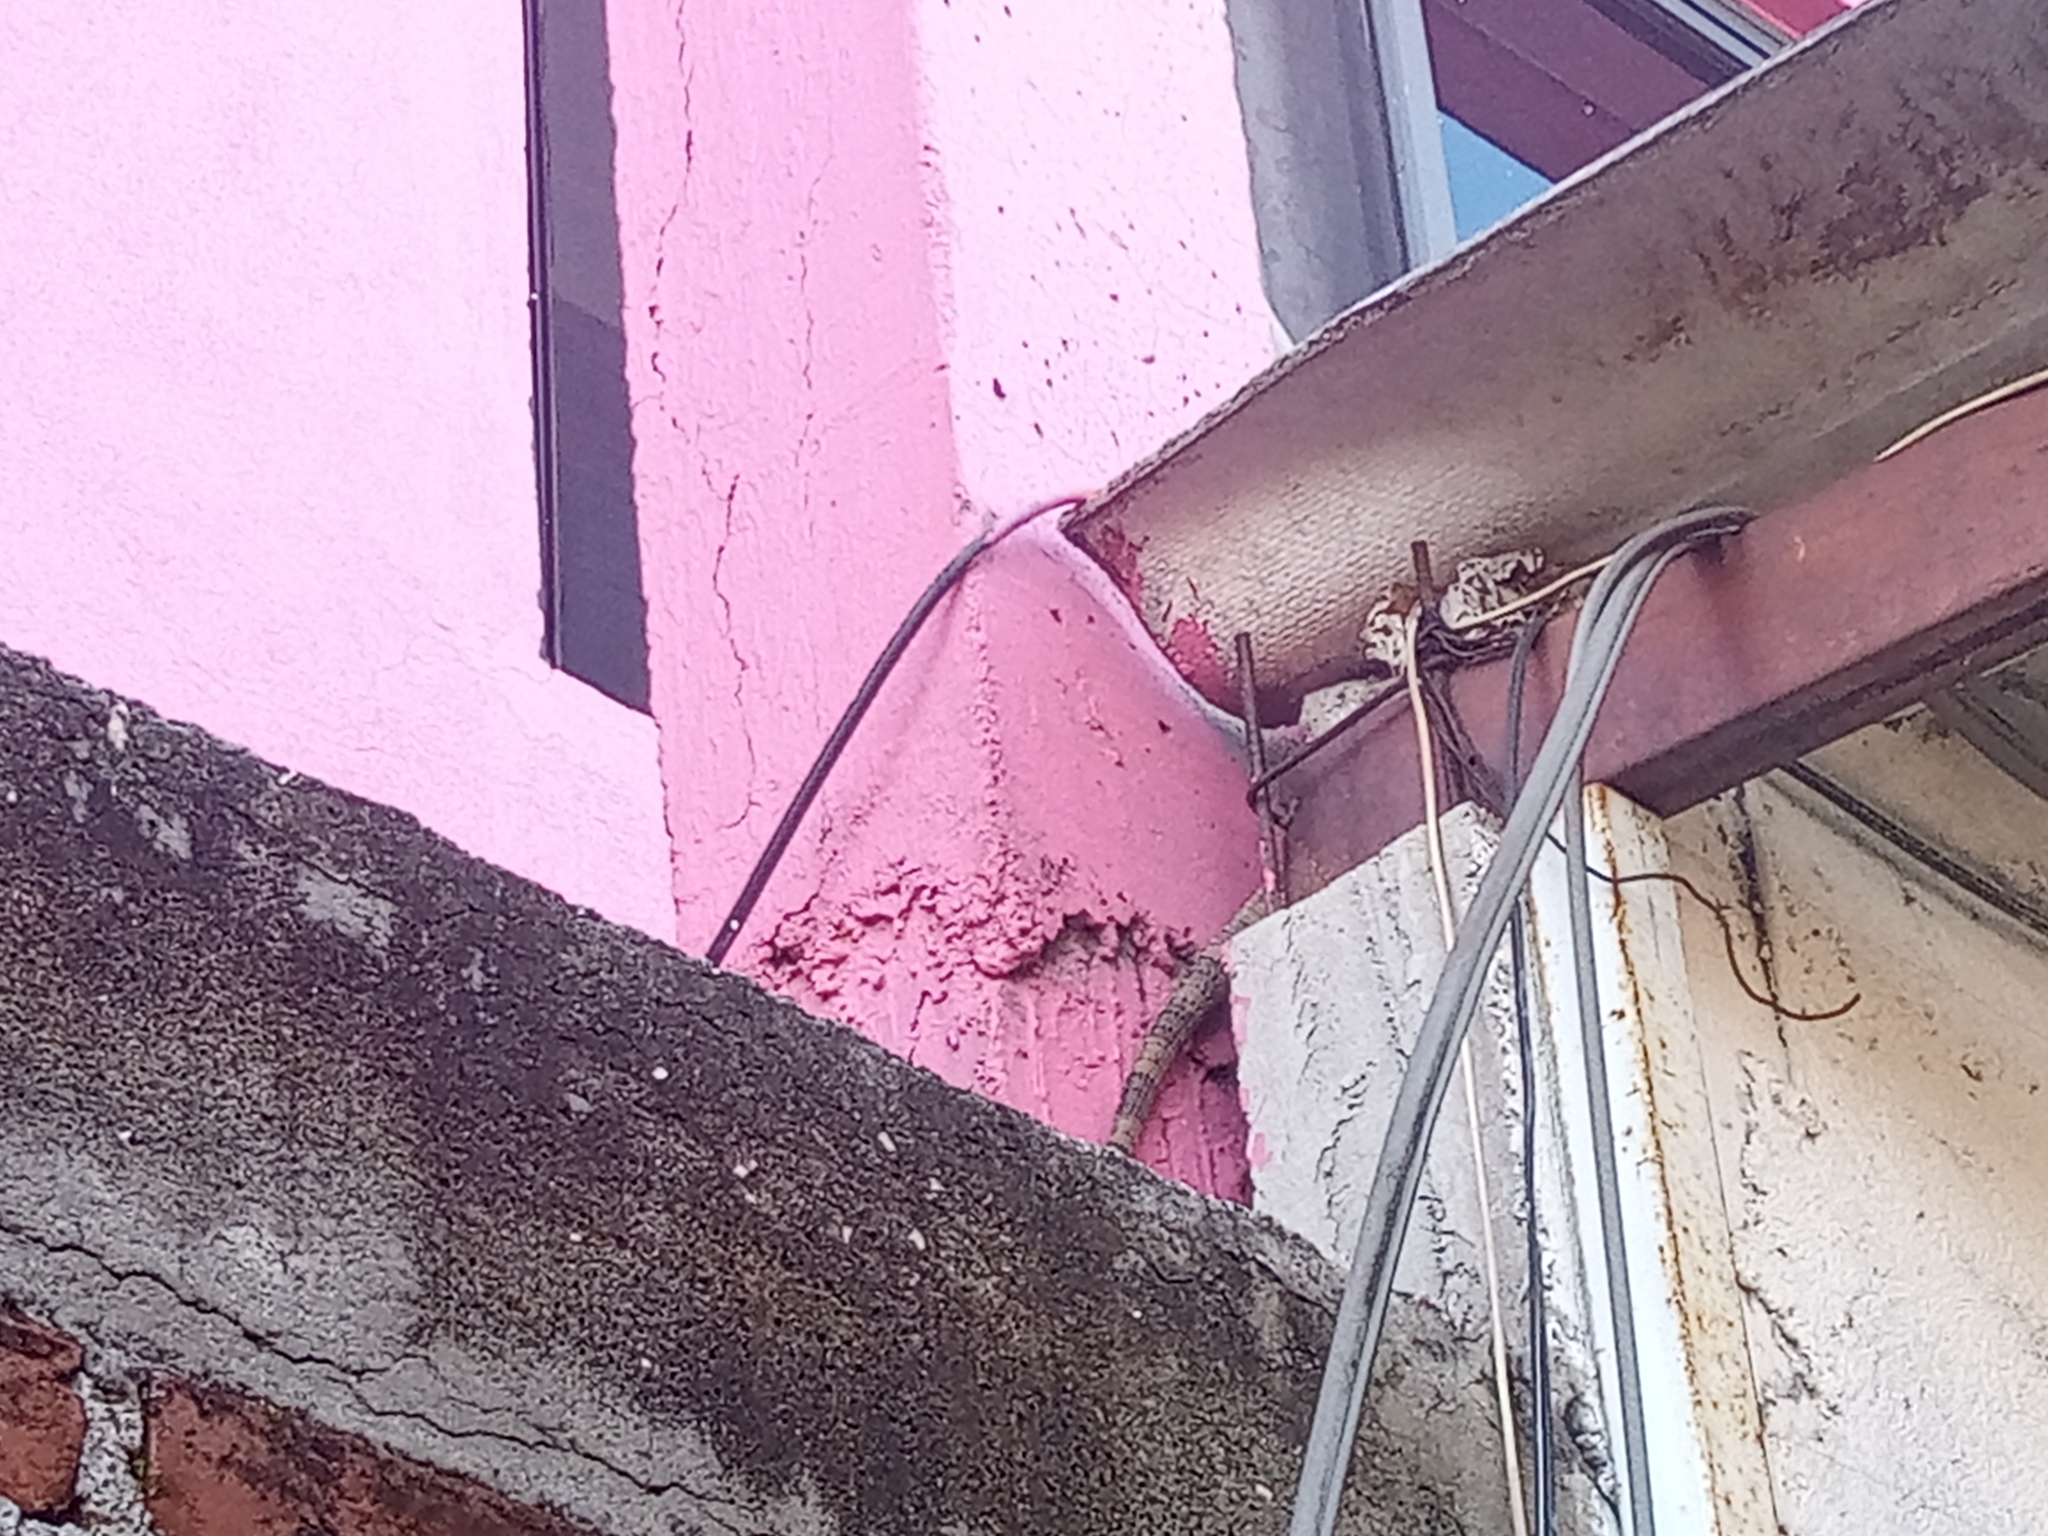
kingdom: Animalia
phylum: Chordata
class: Squamata
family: Iguanidae
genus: Ctenosaura
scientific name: Ctenosaura pectinata
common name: Guerreran spiny-tailed iguana
